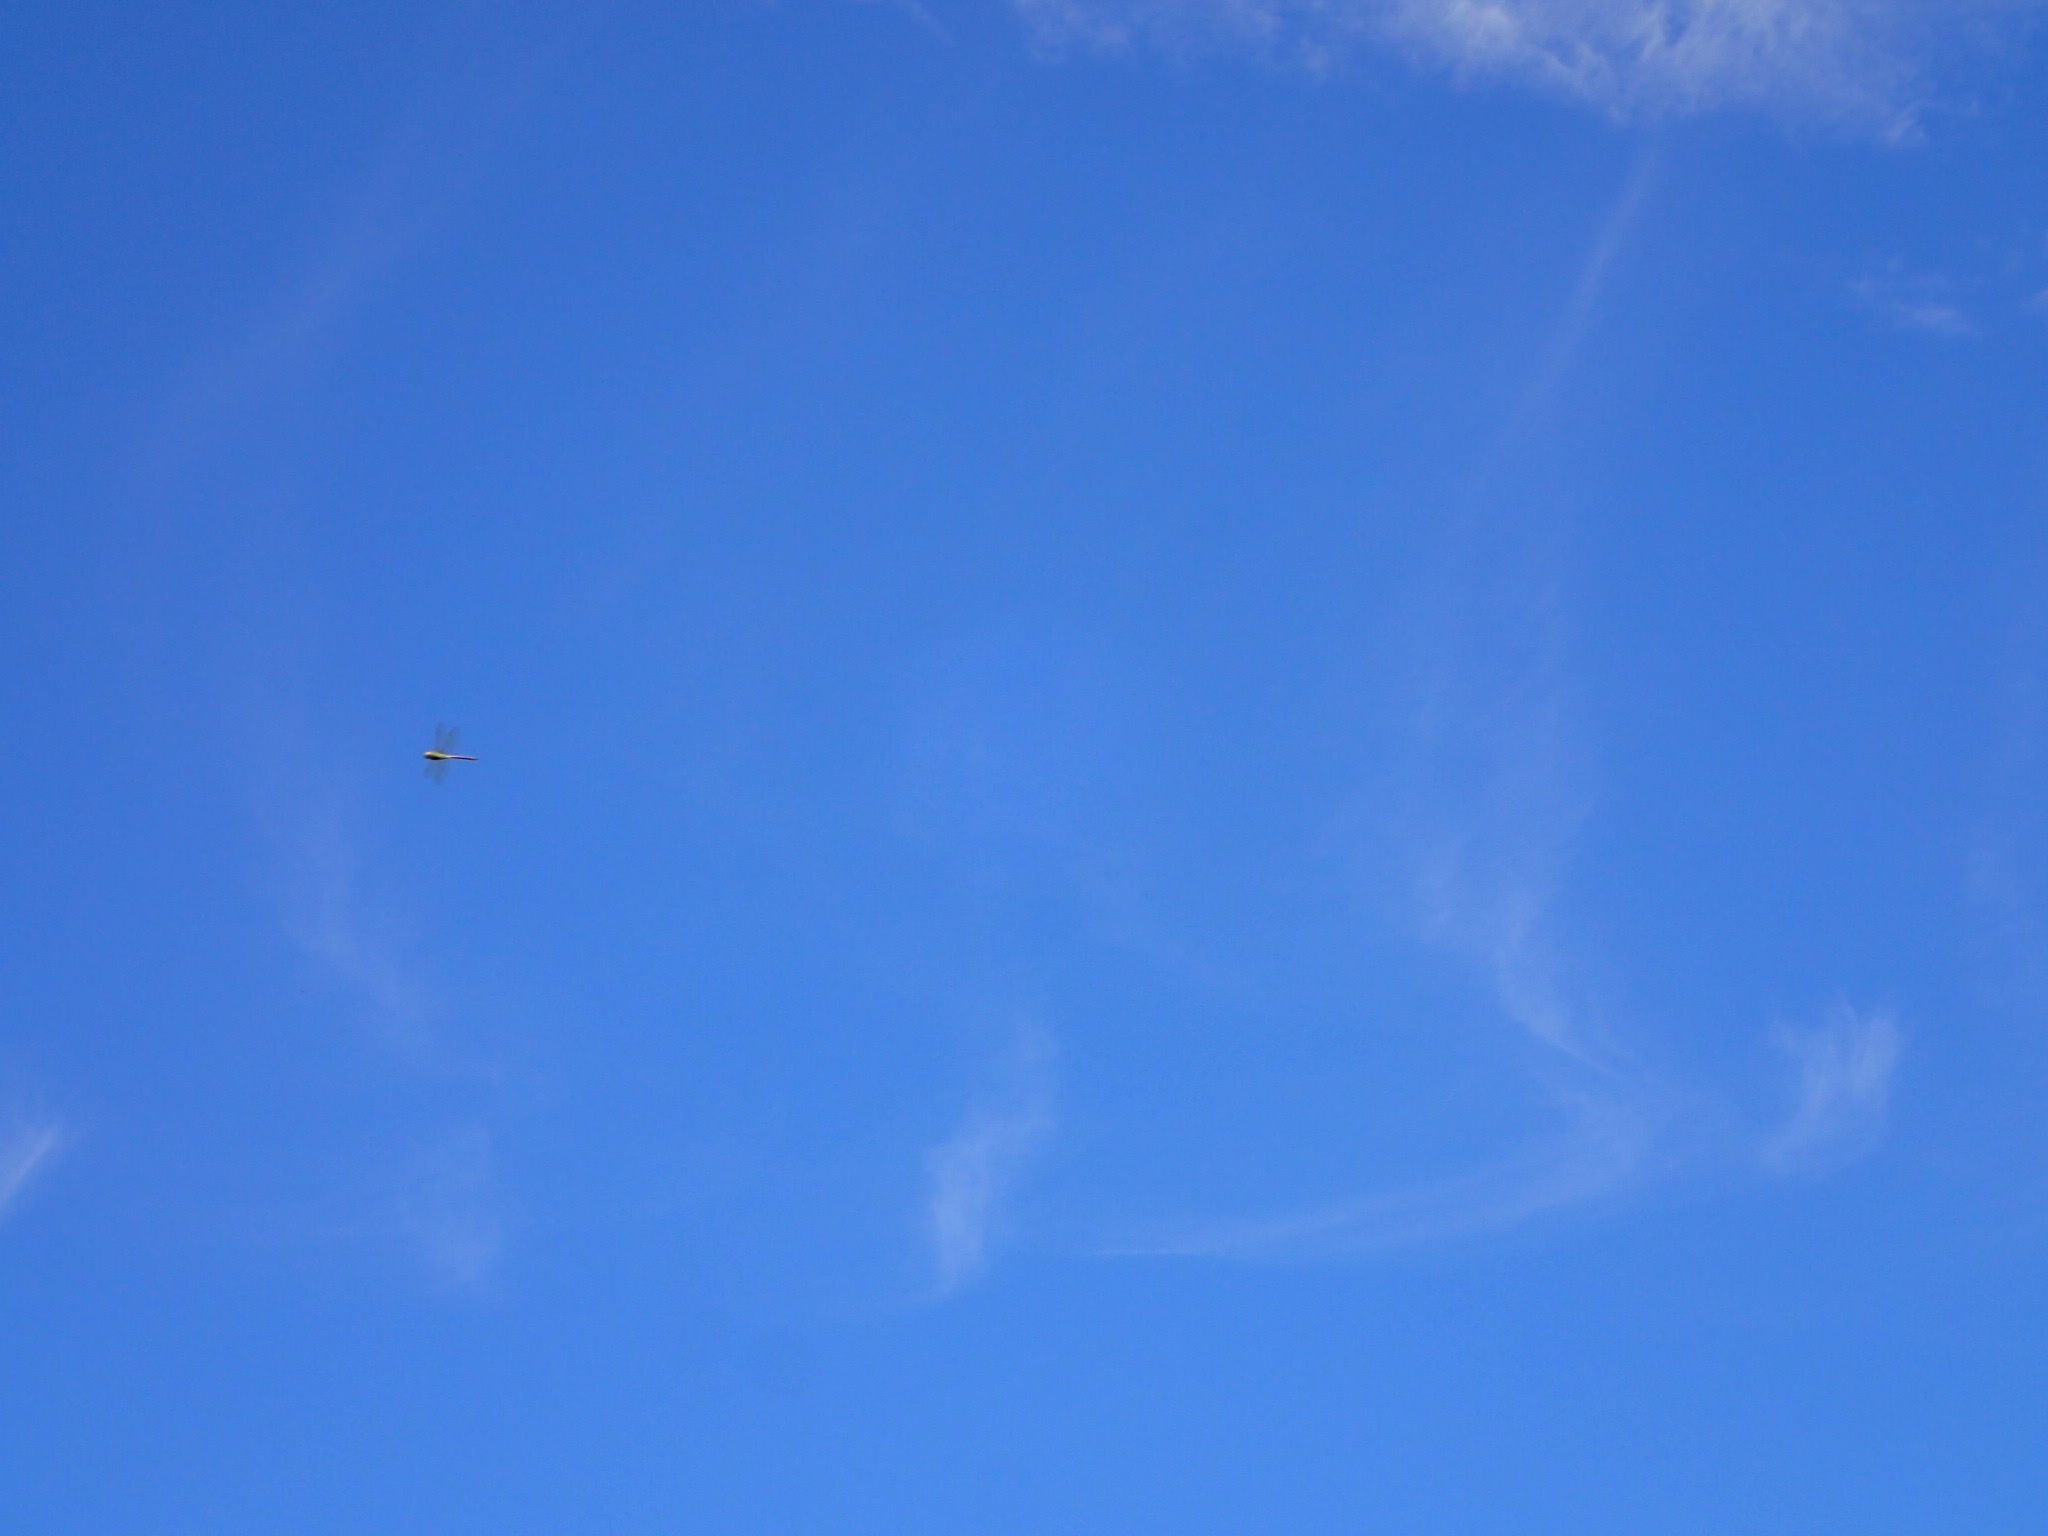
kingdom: Animalia
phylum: Arthropoda
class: Insecta
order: Odonata
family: Aeshnidae
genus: Anax
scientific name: Anax junius
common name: Common green darner
